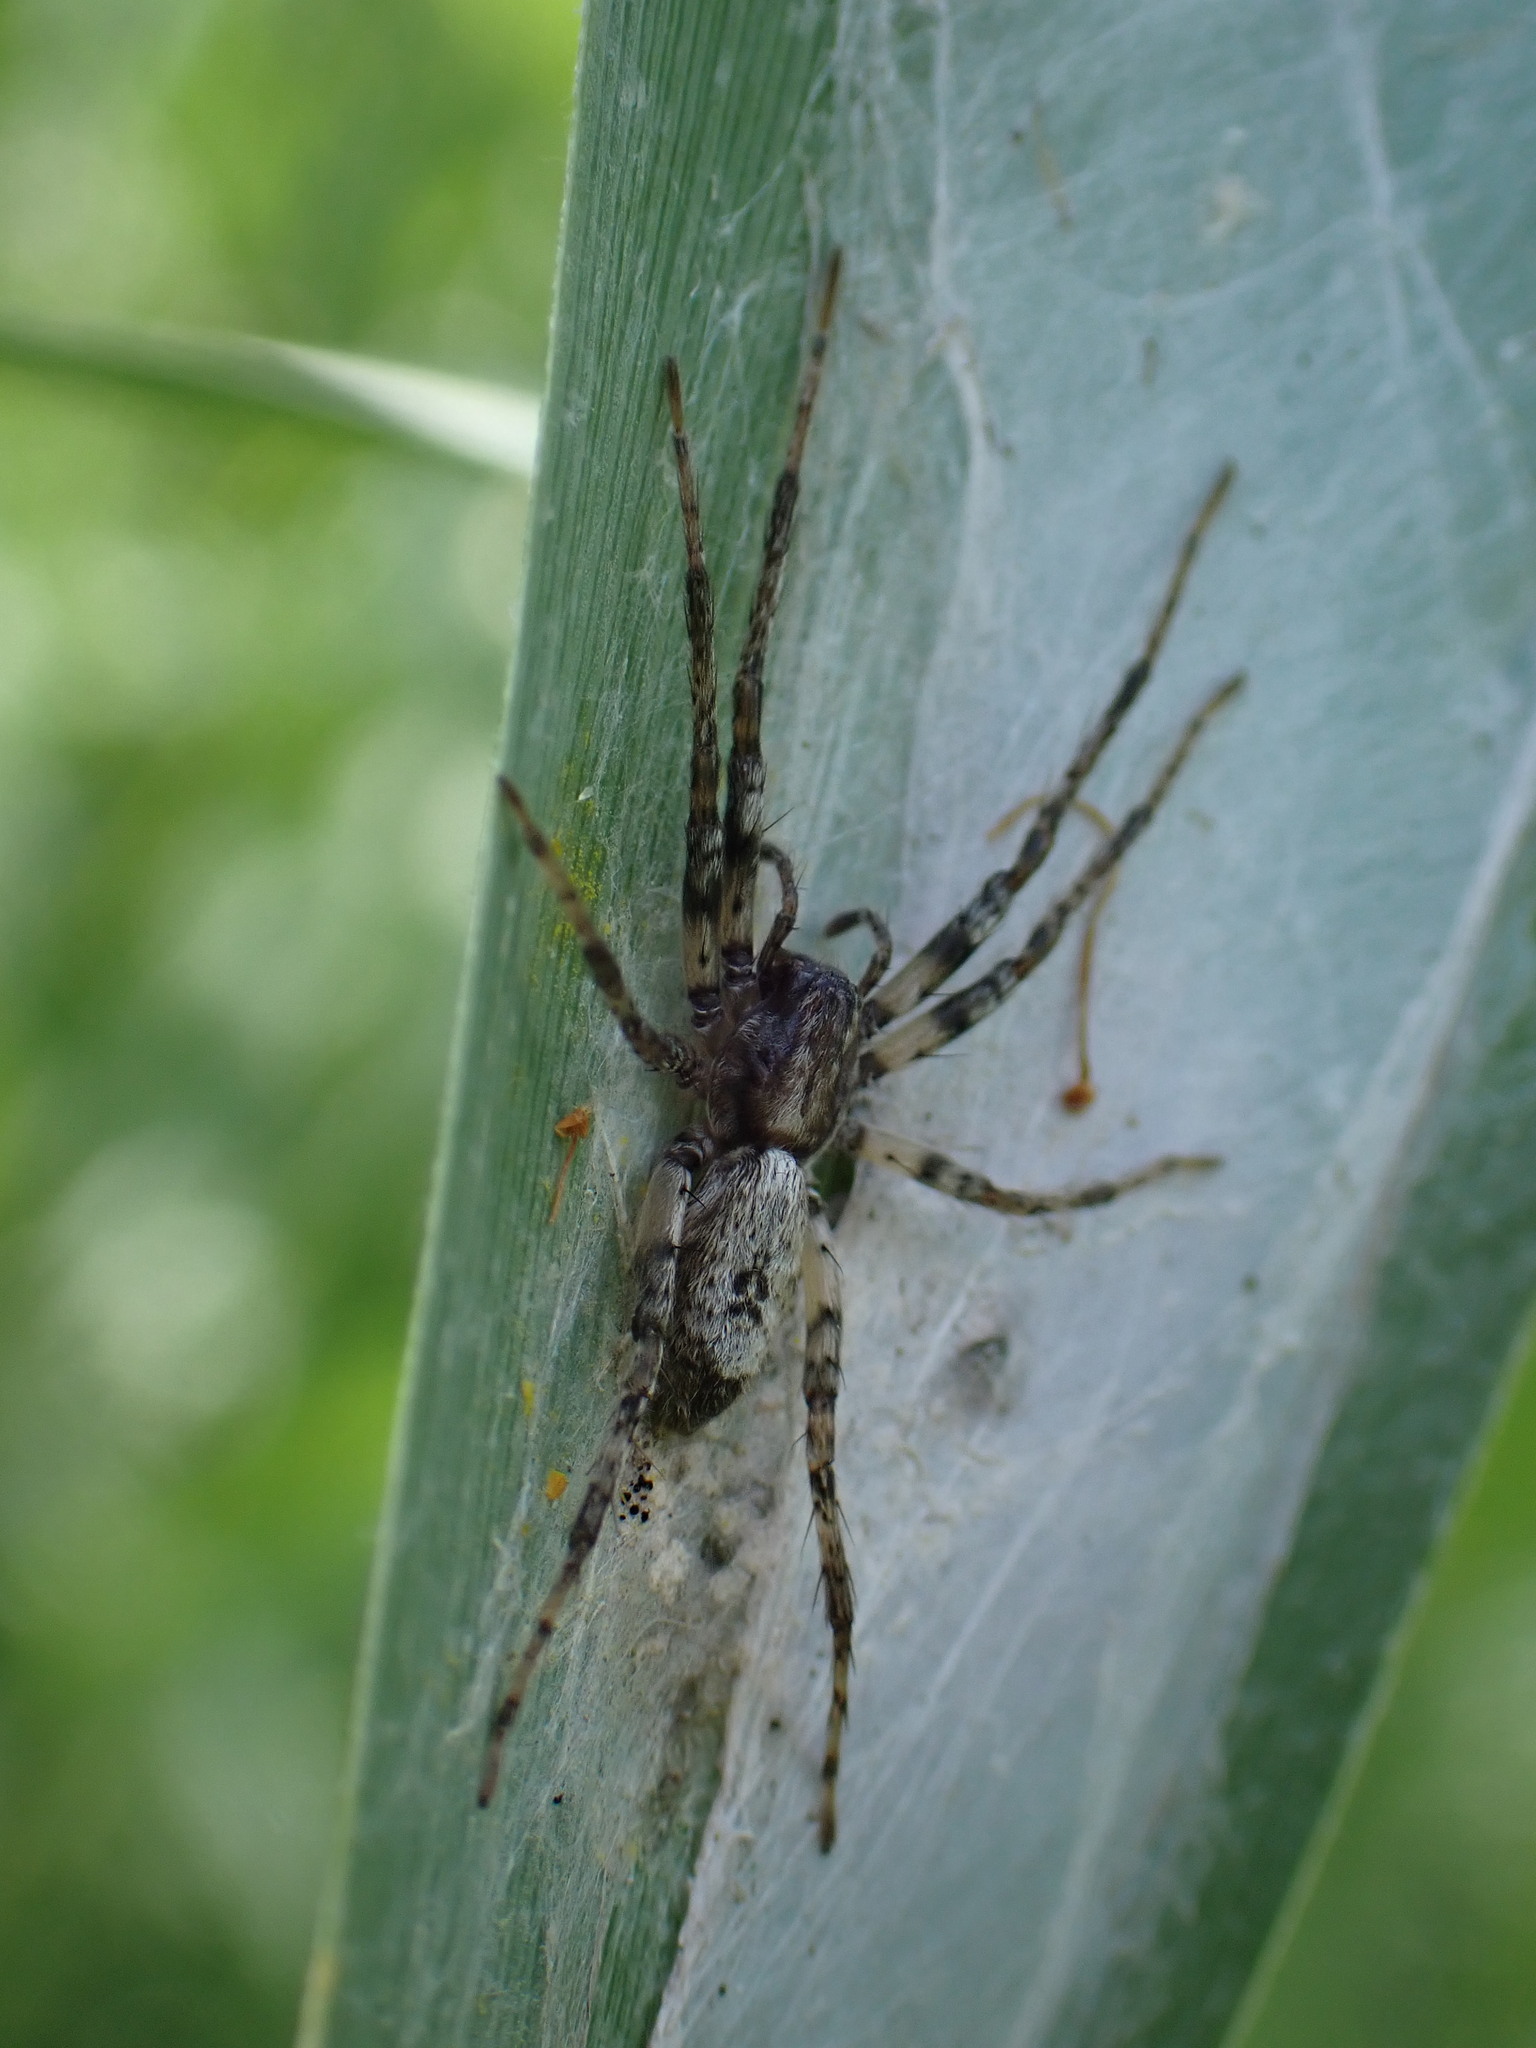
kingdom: Animalia
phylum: Arthropoda
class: Arachnida
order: Araneae
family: Anyphaenidae
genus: Anyphaena
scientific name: Anyphaena accentuata
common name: Buzzing spider
